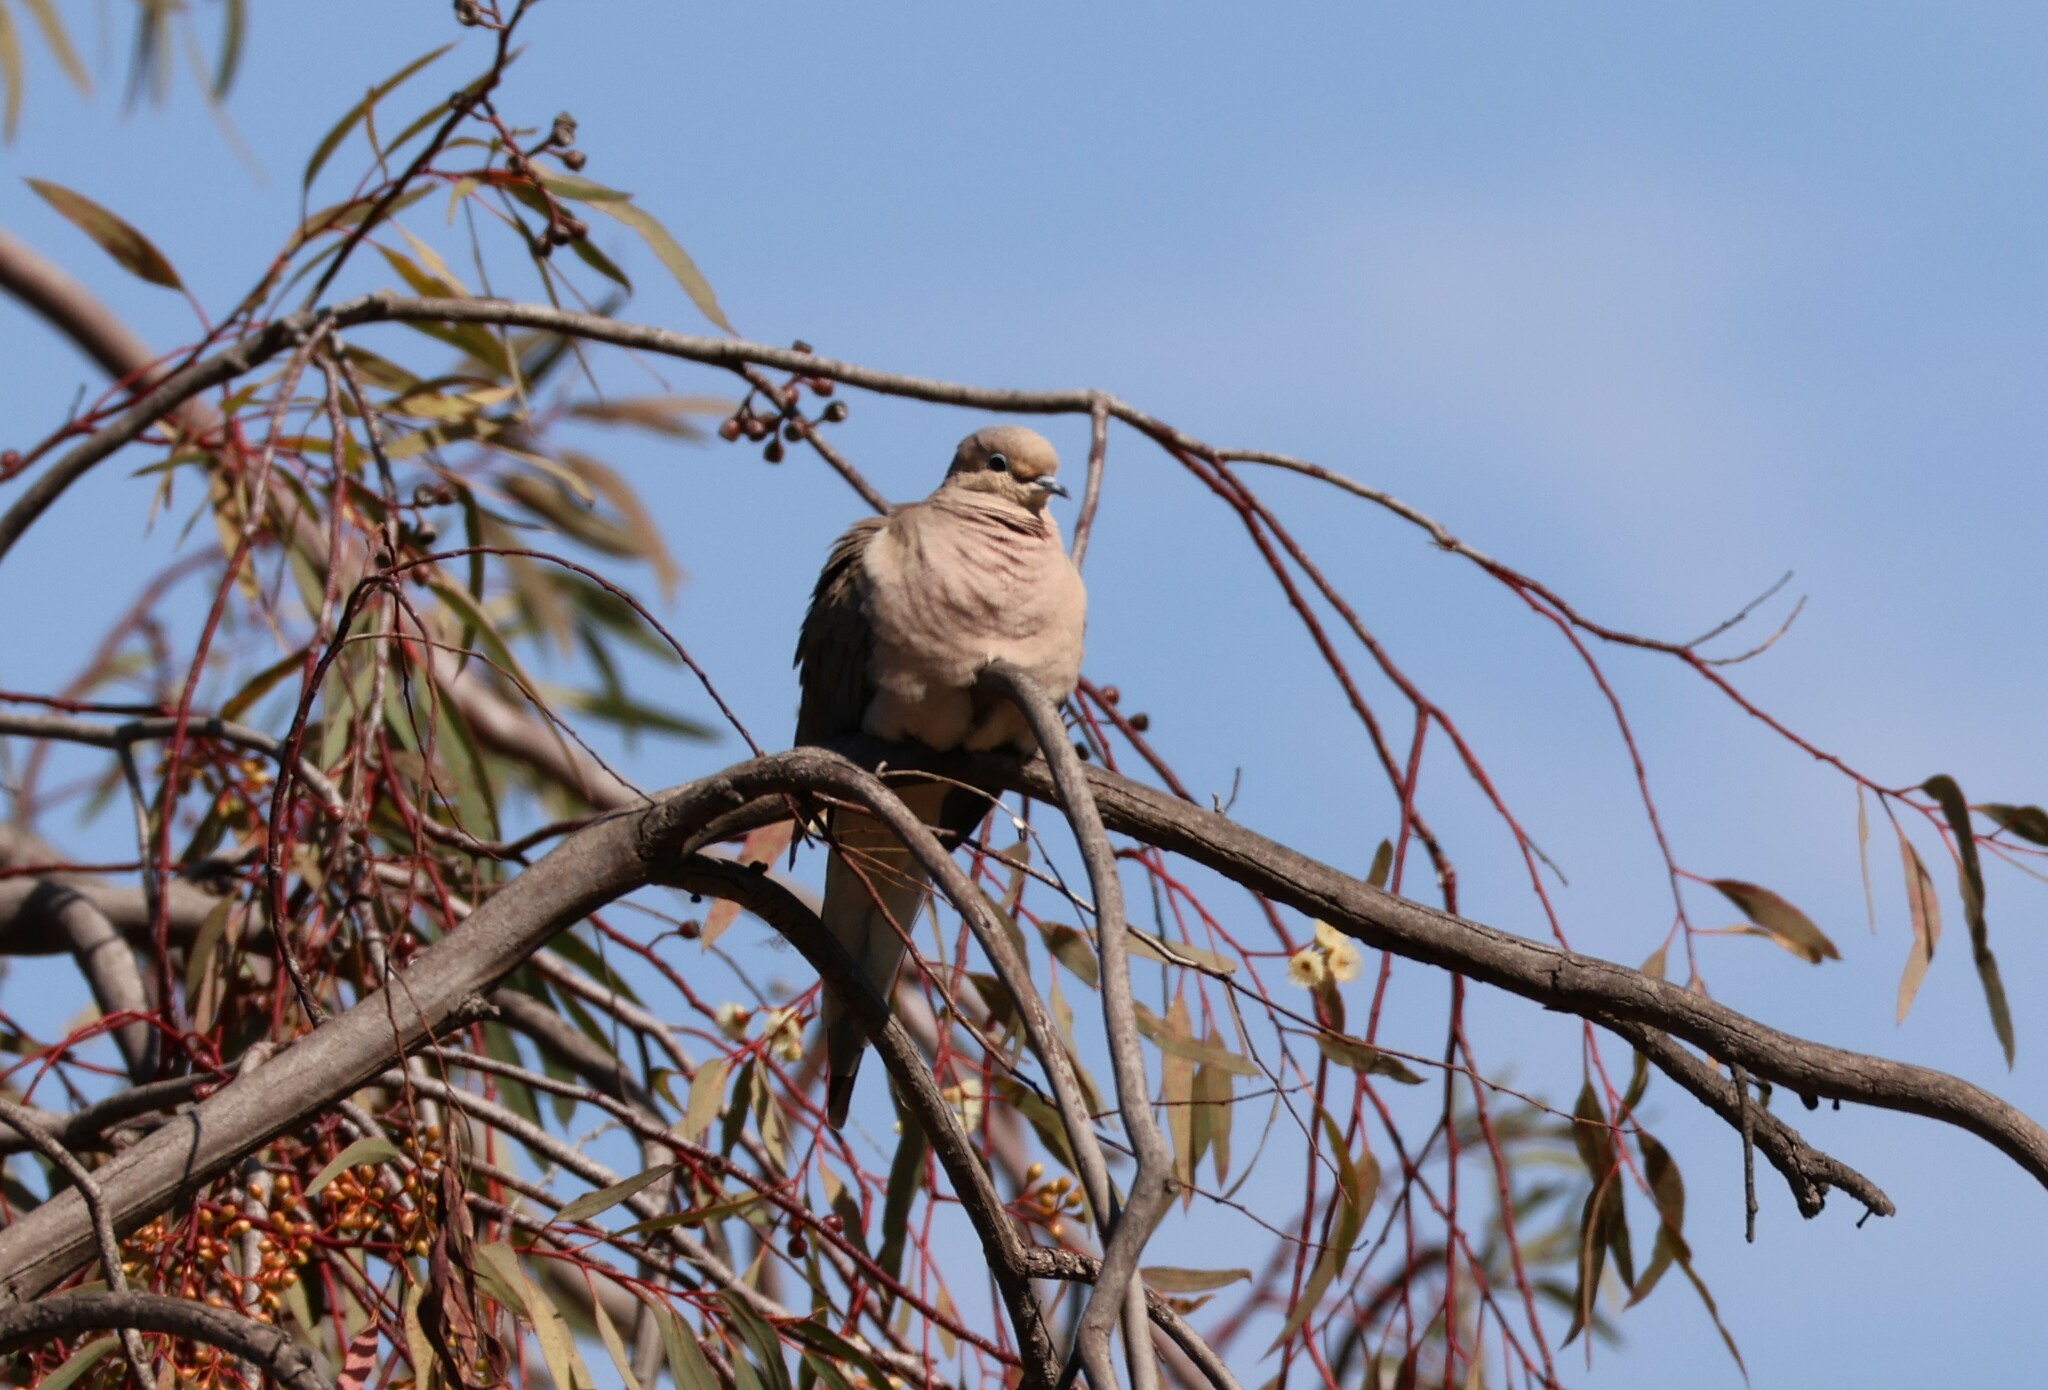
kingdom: Animalia
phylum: Chordata
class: Aves
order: Columbiformes
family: Columbidae
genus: Zenaida
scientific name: Zenaida macroura
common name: Mourning dove
